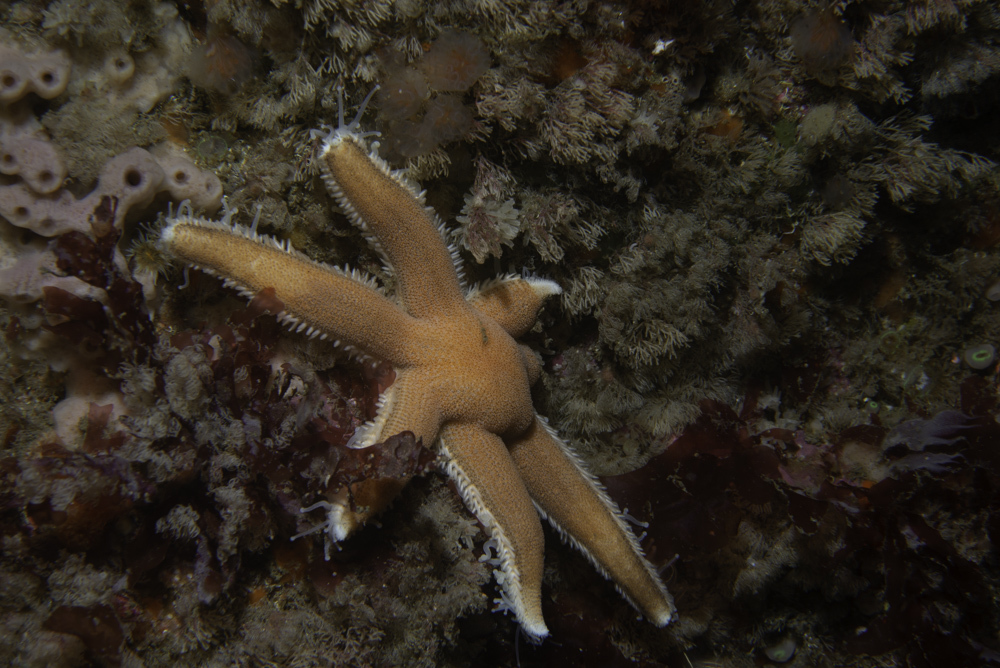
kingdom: Animalia
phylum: Echinodermata
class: Asteroidea
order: Paxillosida
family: Luidiidae
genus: Luidia
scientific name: Luidia ciliaris
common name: Seven-armed starfish
